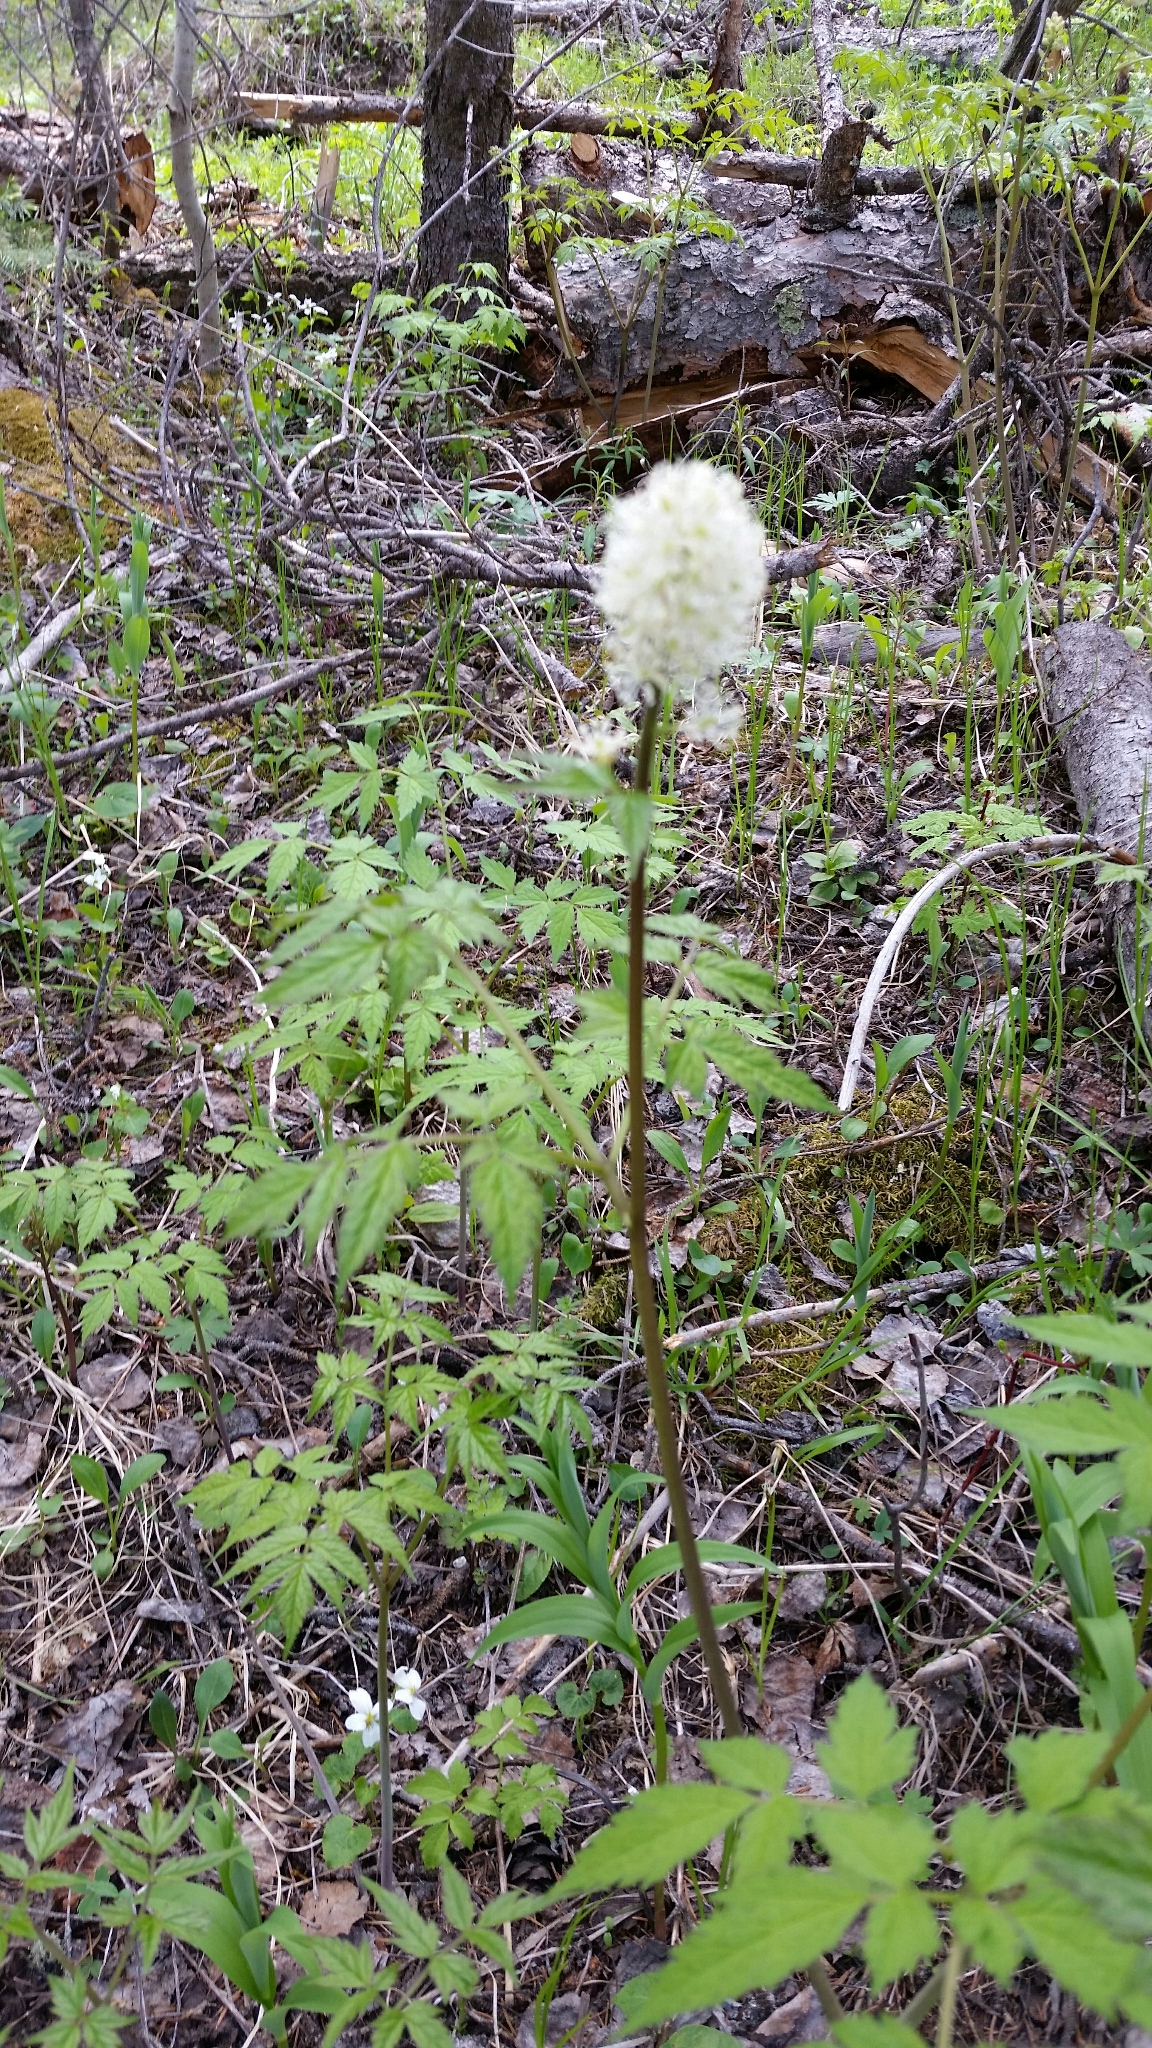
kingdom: Plantae
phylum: Tracheophyta
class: Magnoliopsida
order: Ranunculales
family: Ranunculaceae
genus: Actaea
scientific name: Actaea rubra
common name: Red baneberry
